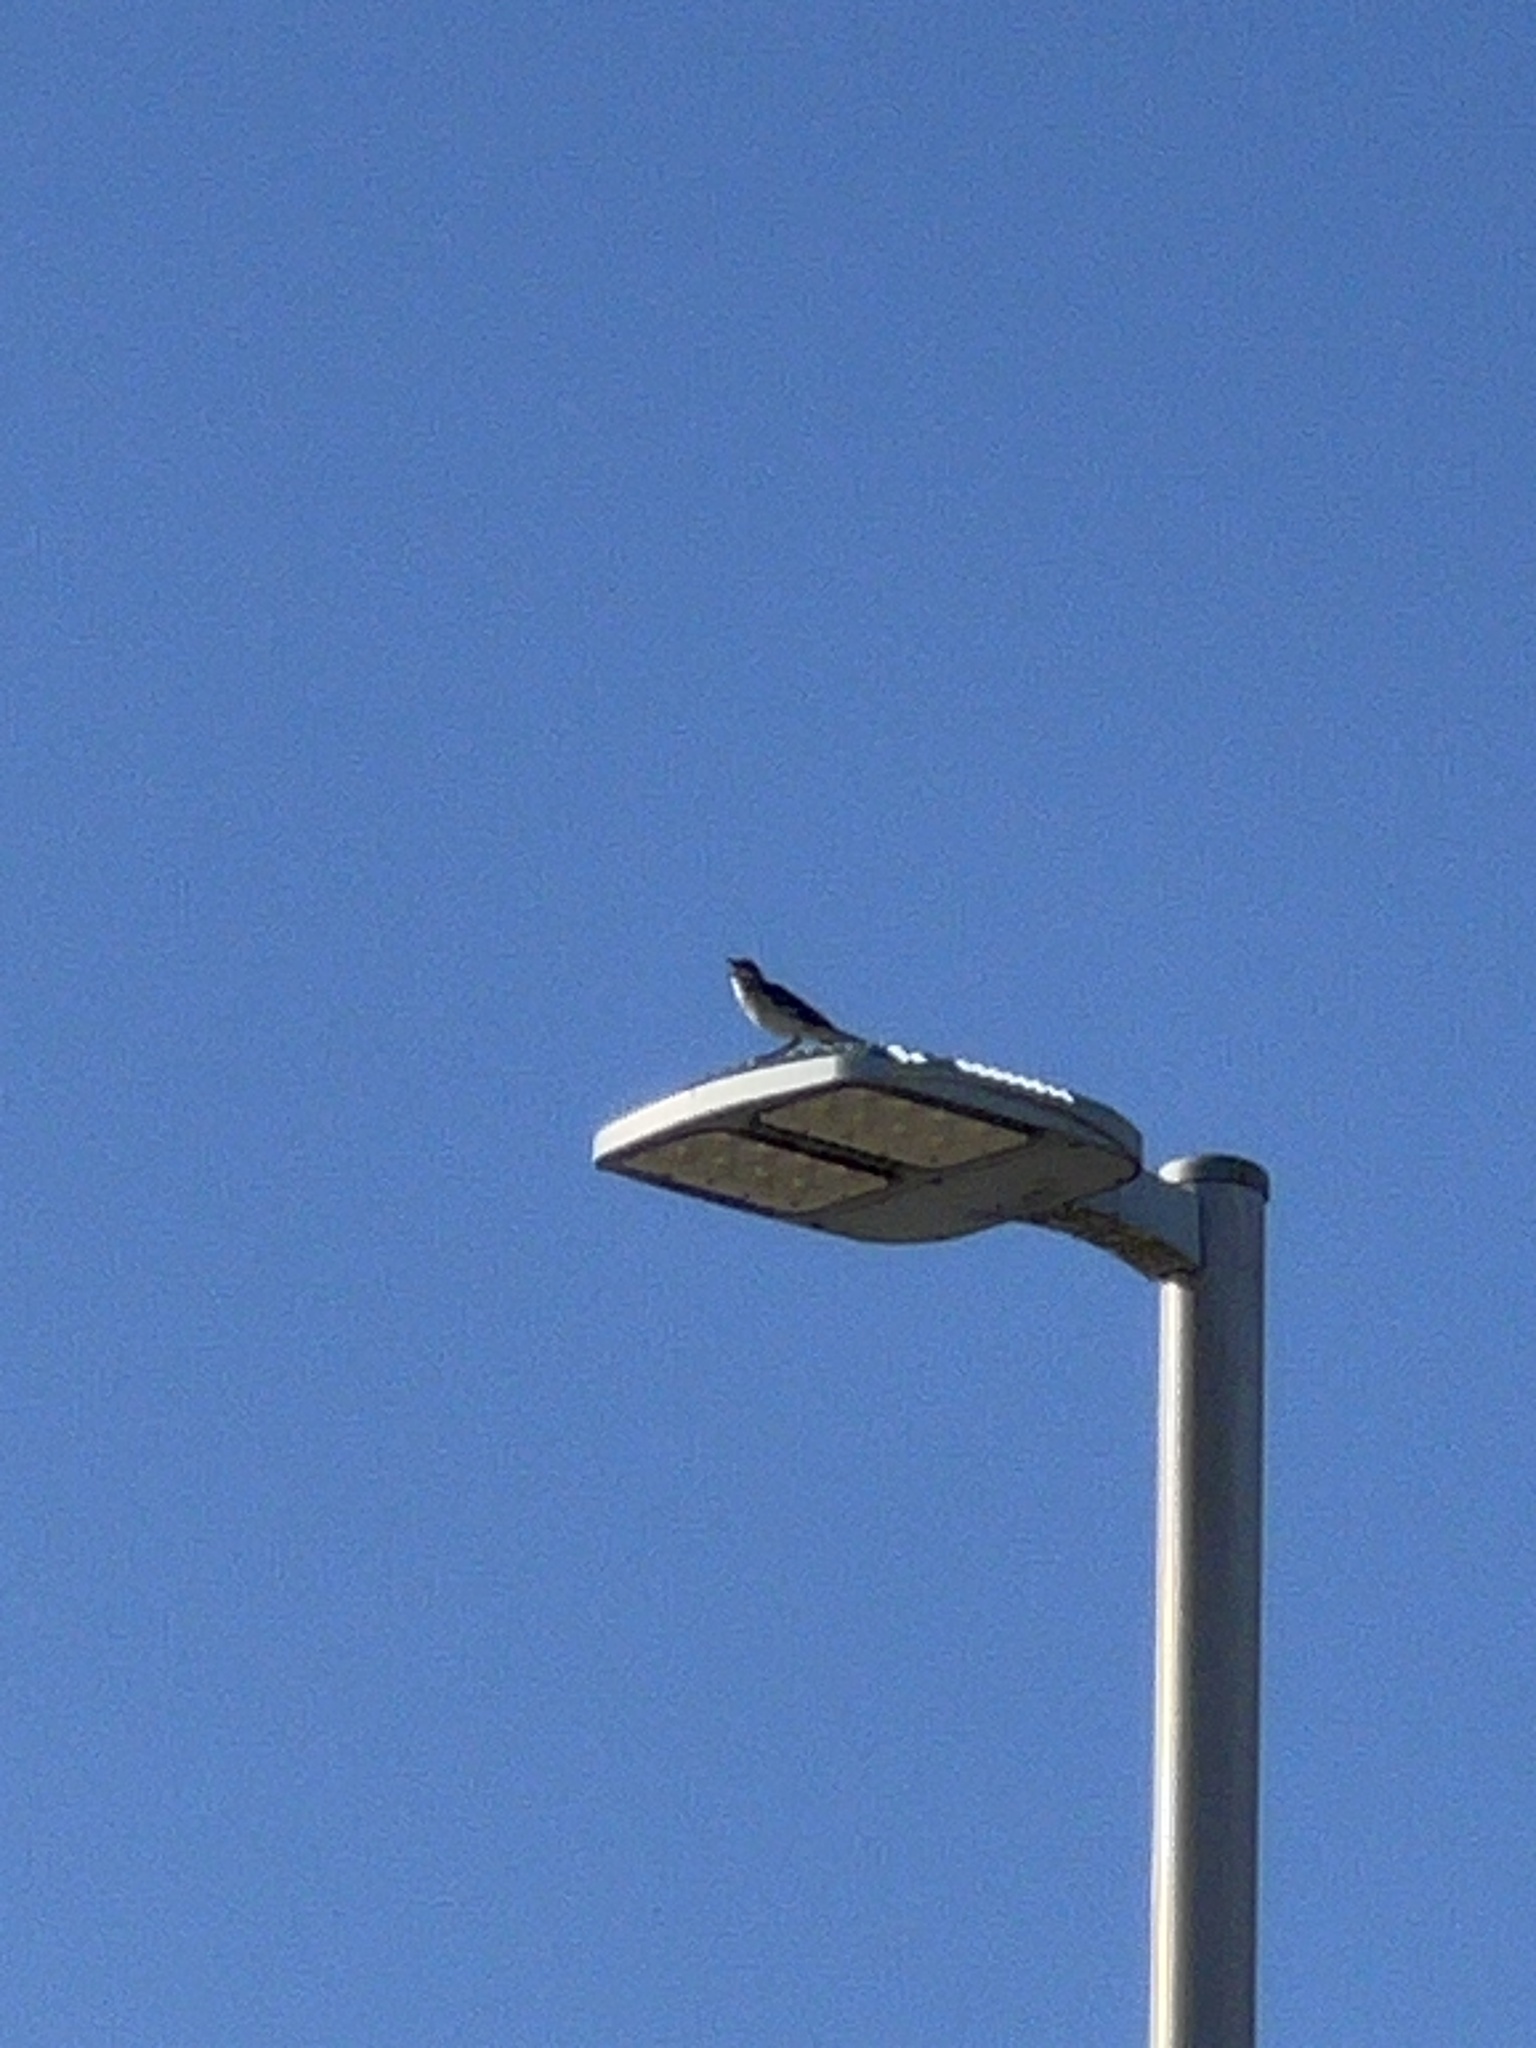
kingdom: Animalia
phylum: Chordata
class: Aves
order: Passeriformes
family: Mimidae
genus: Mimus
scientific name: Mimus polyglottos
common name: Northern mockingbird
